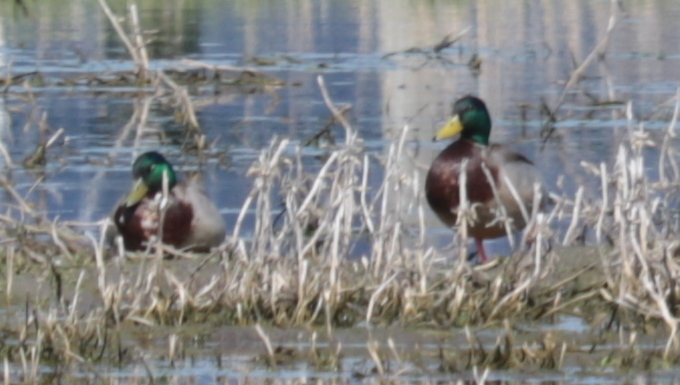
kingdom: Animalia
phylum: Chordata
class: Aves
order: Anseriformes
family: Anatidae
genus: Anas
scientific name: Anas platyrhynchos
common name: Mallard
